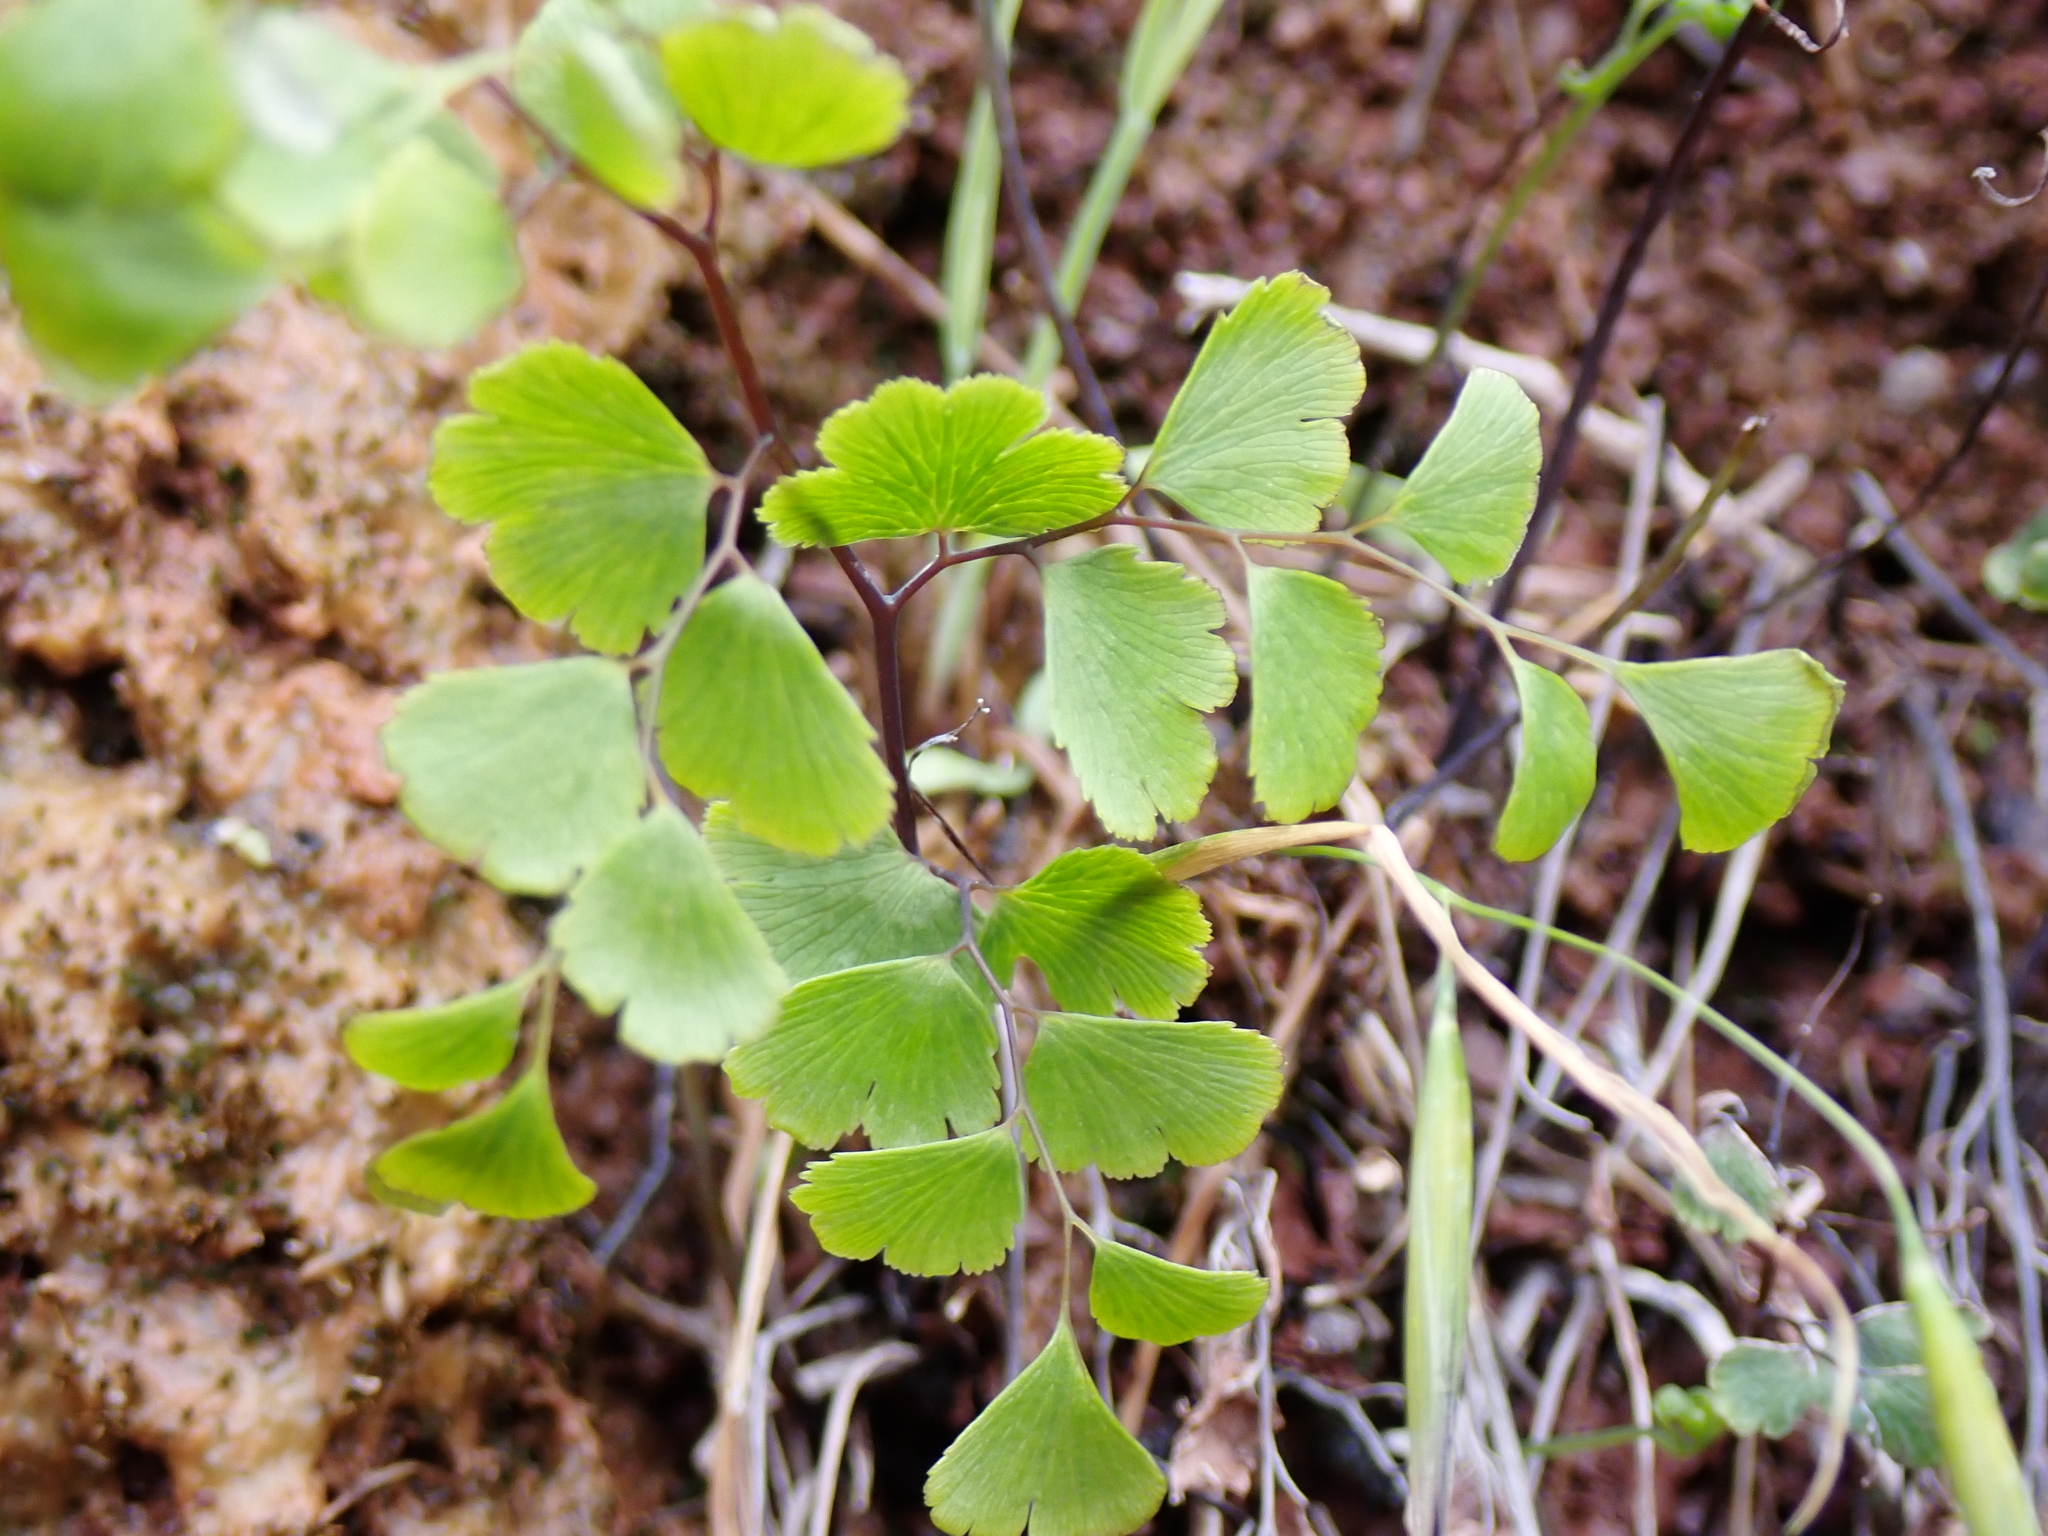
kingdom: Plantae
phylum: Tracheophyta
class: Polypodiopsida
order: Polypodiales
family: Pteridaceae
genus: Adiantum
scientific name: Adiantum capillus-veneris
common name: Maidenhair fern
